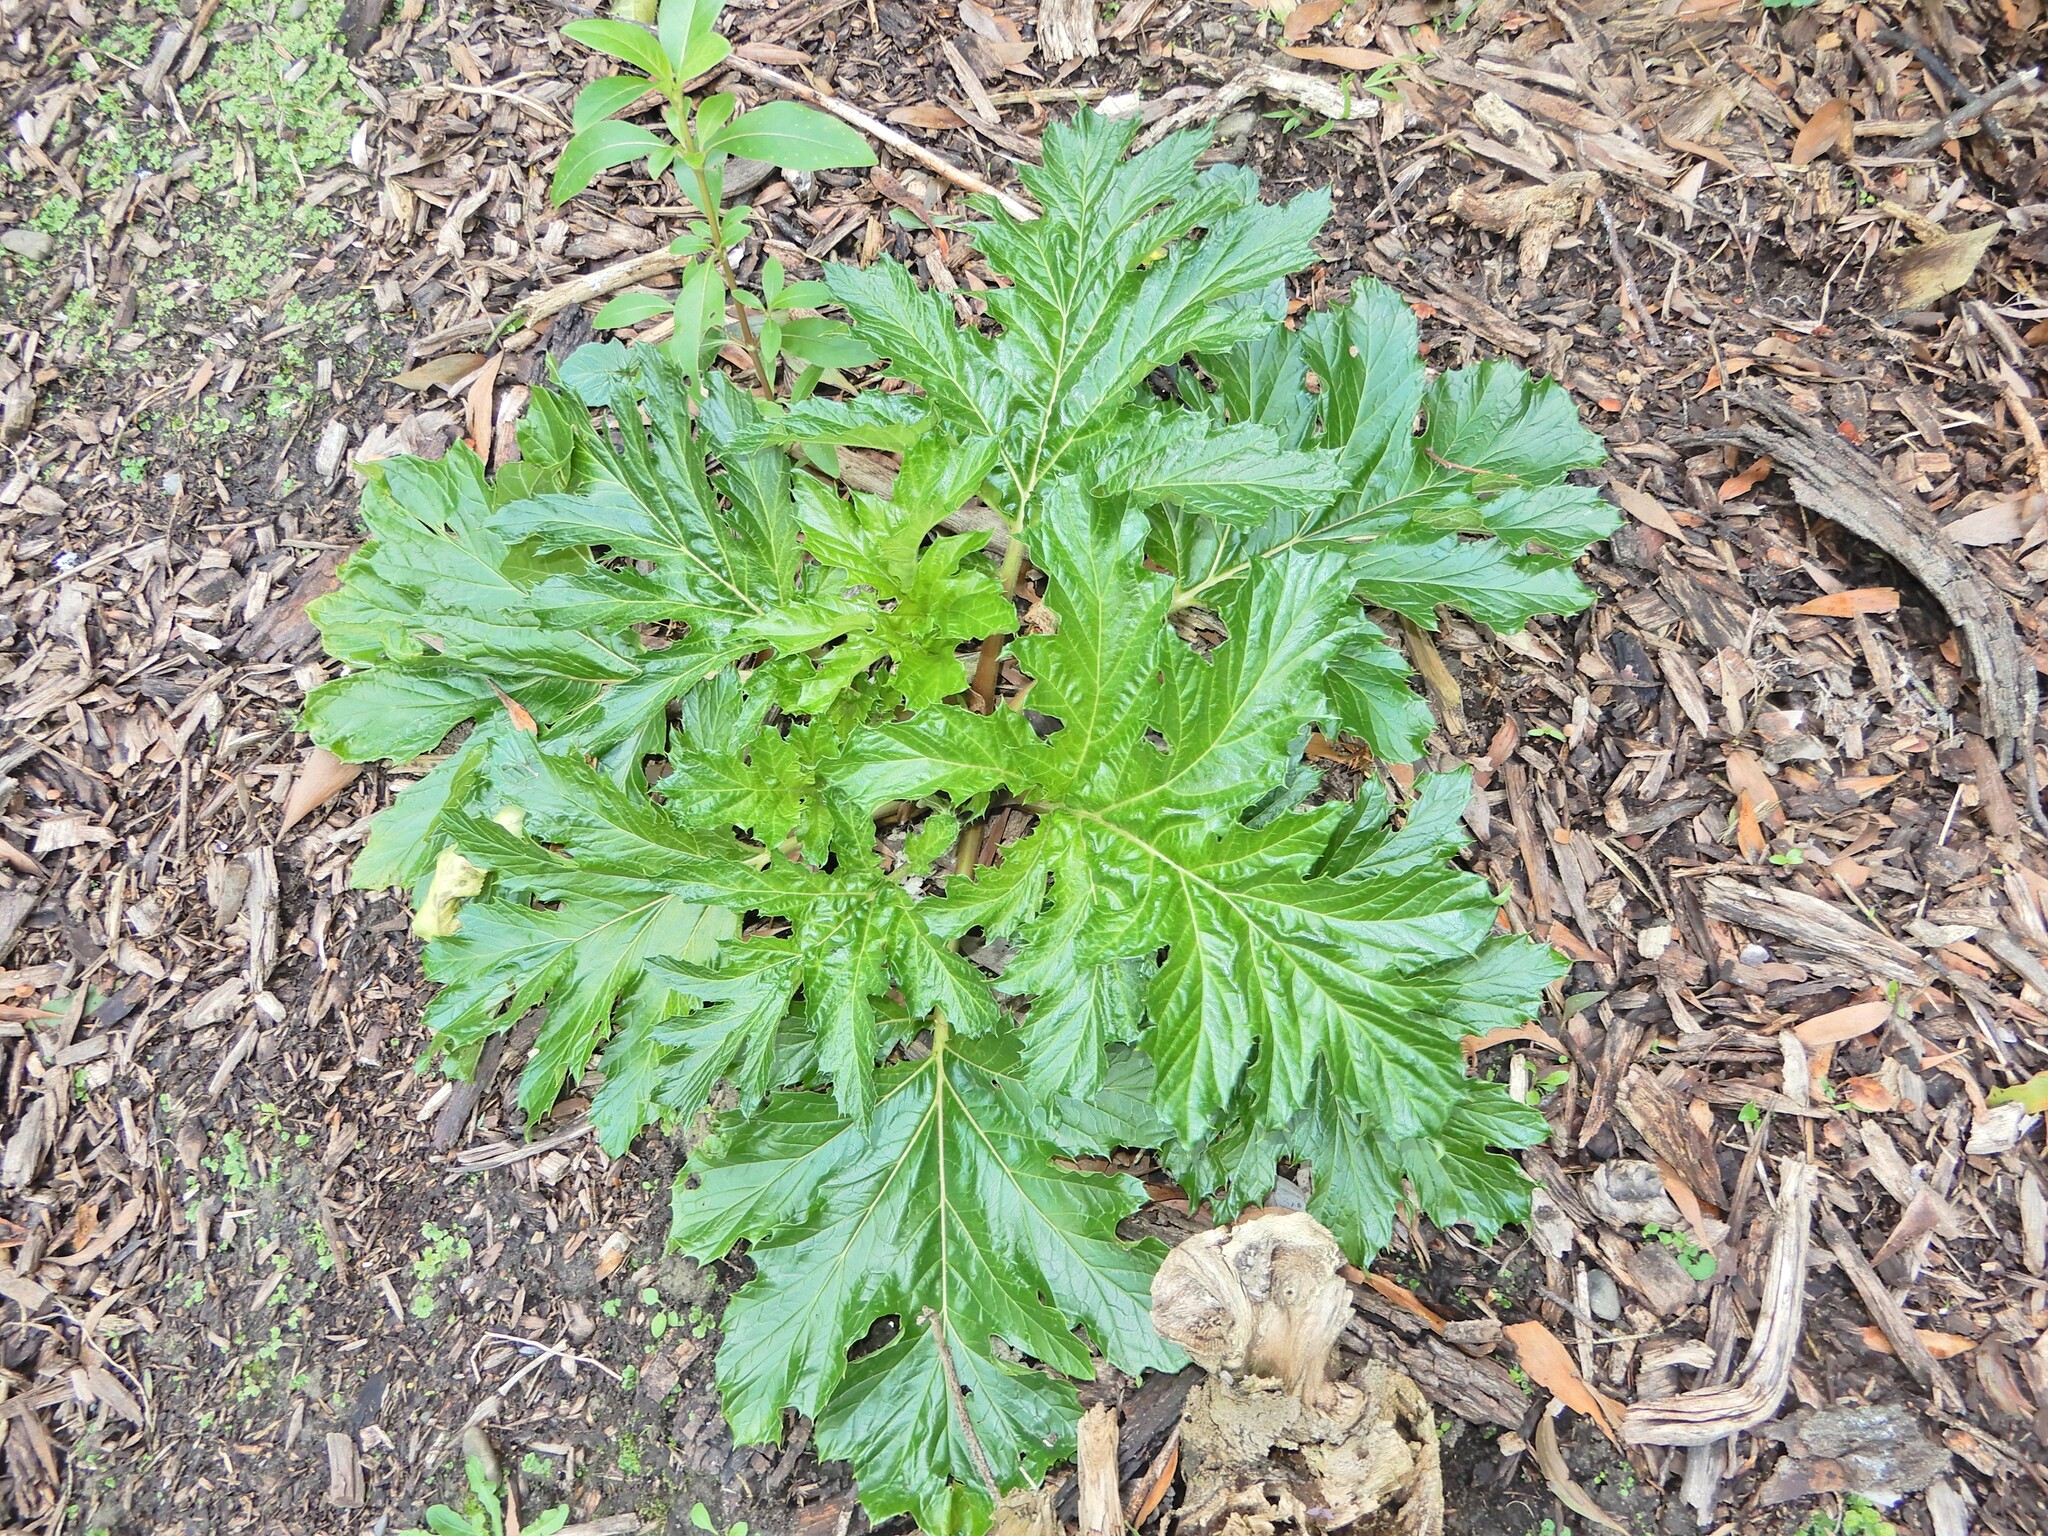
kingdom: Plantae
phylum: Tracheophyta
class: Magnoliopsida
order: Lamiales
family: Acanthaceae
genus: Acanthus
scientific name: Acanthus mollis
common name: Bear's-breech
